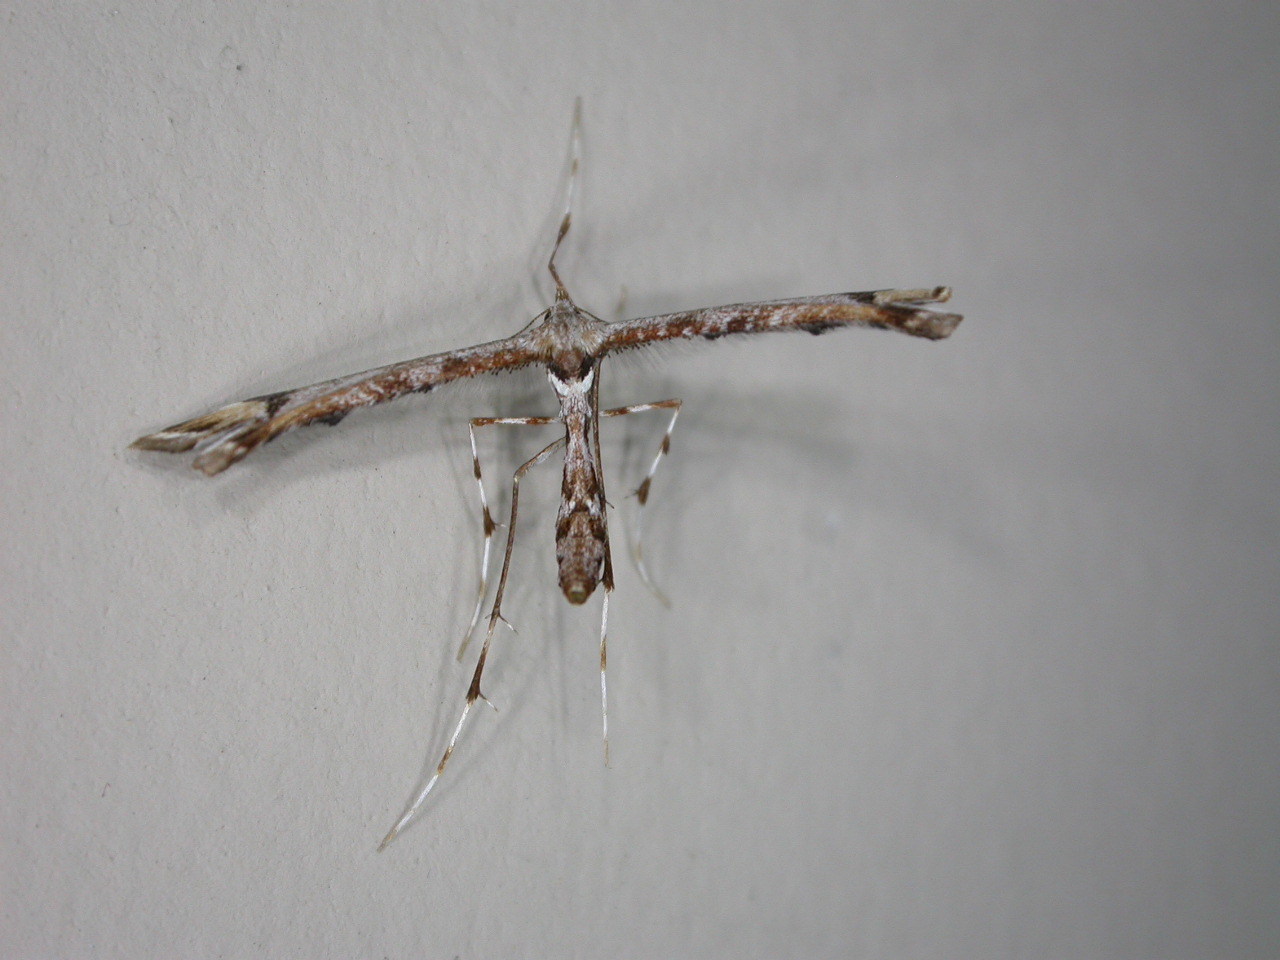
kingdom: Animalia
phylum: Arthropoda
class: Insecta
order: Lepidoptera
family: Pterophoridae
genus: Amblyptilia
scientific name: Amblyptilia falcatalis
